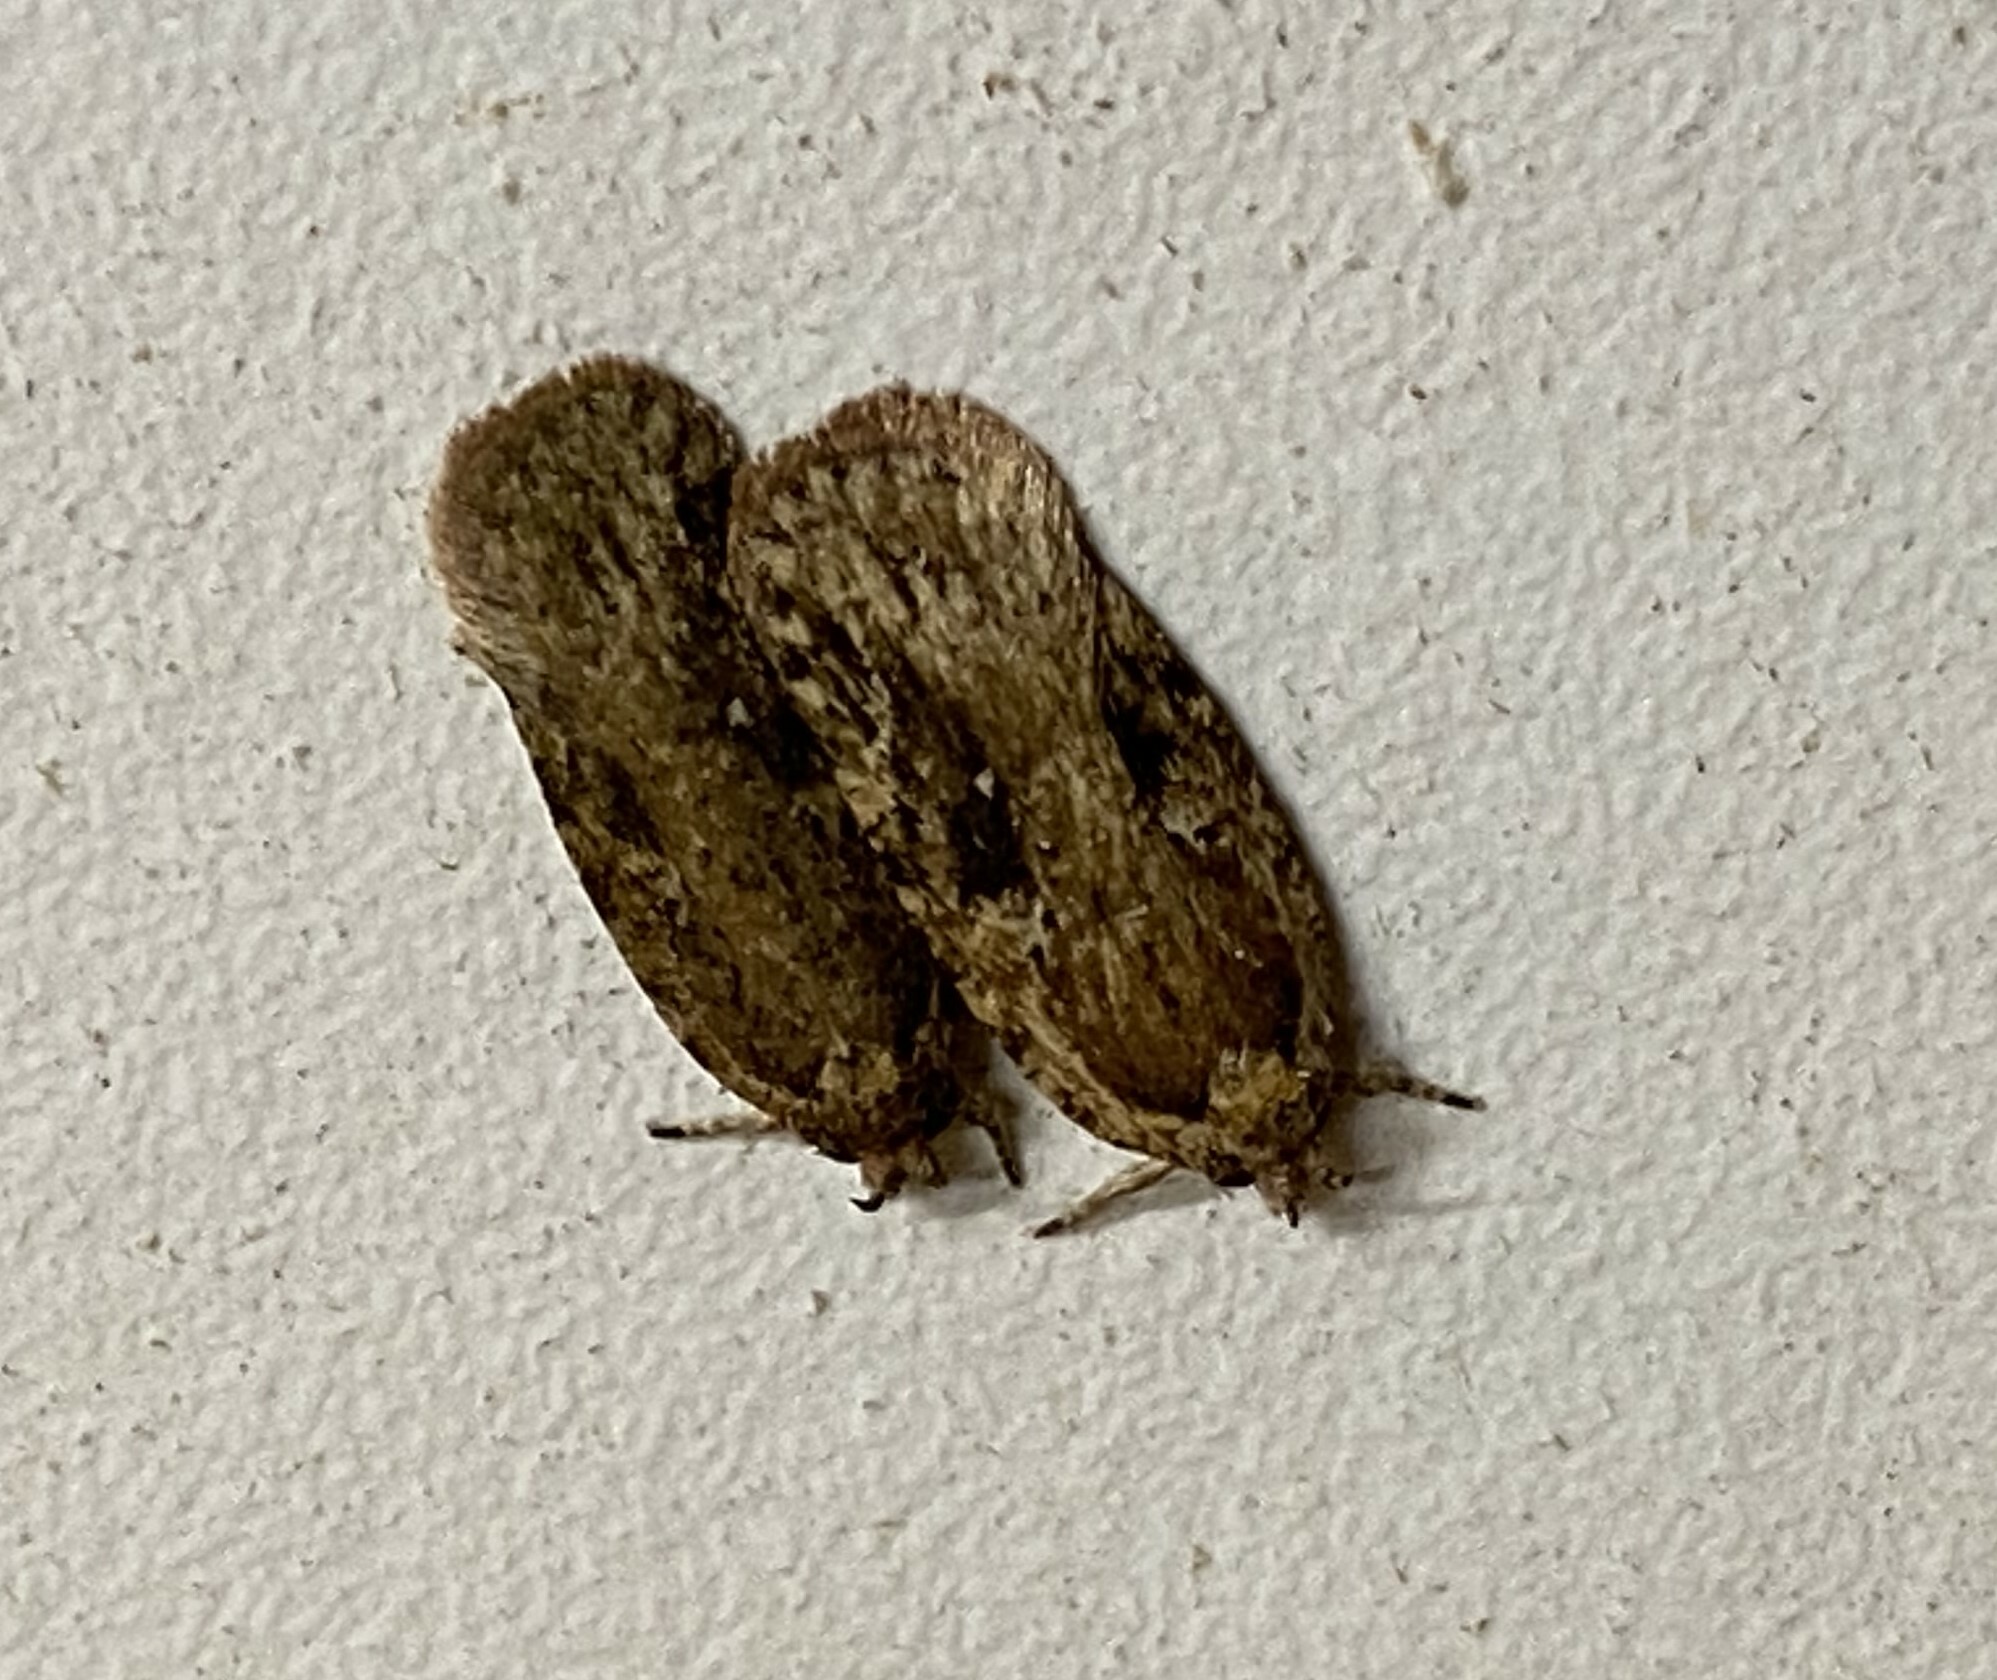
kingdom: Animalia
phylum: Arthropoda
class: Insecta
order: Lepidoptera
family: Depressariidae
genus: Agonopterix
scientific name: Agonopterix pulvipennella
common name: Goldenrod leafffolder
